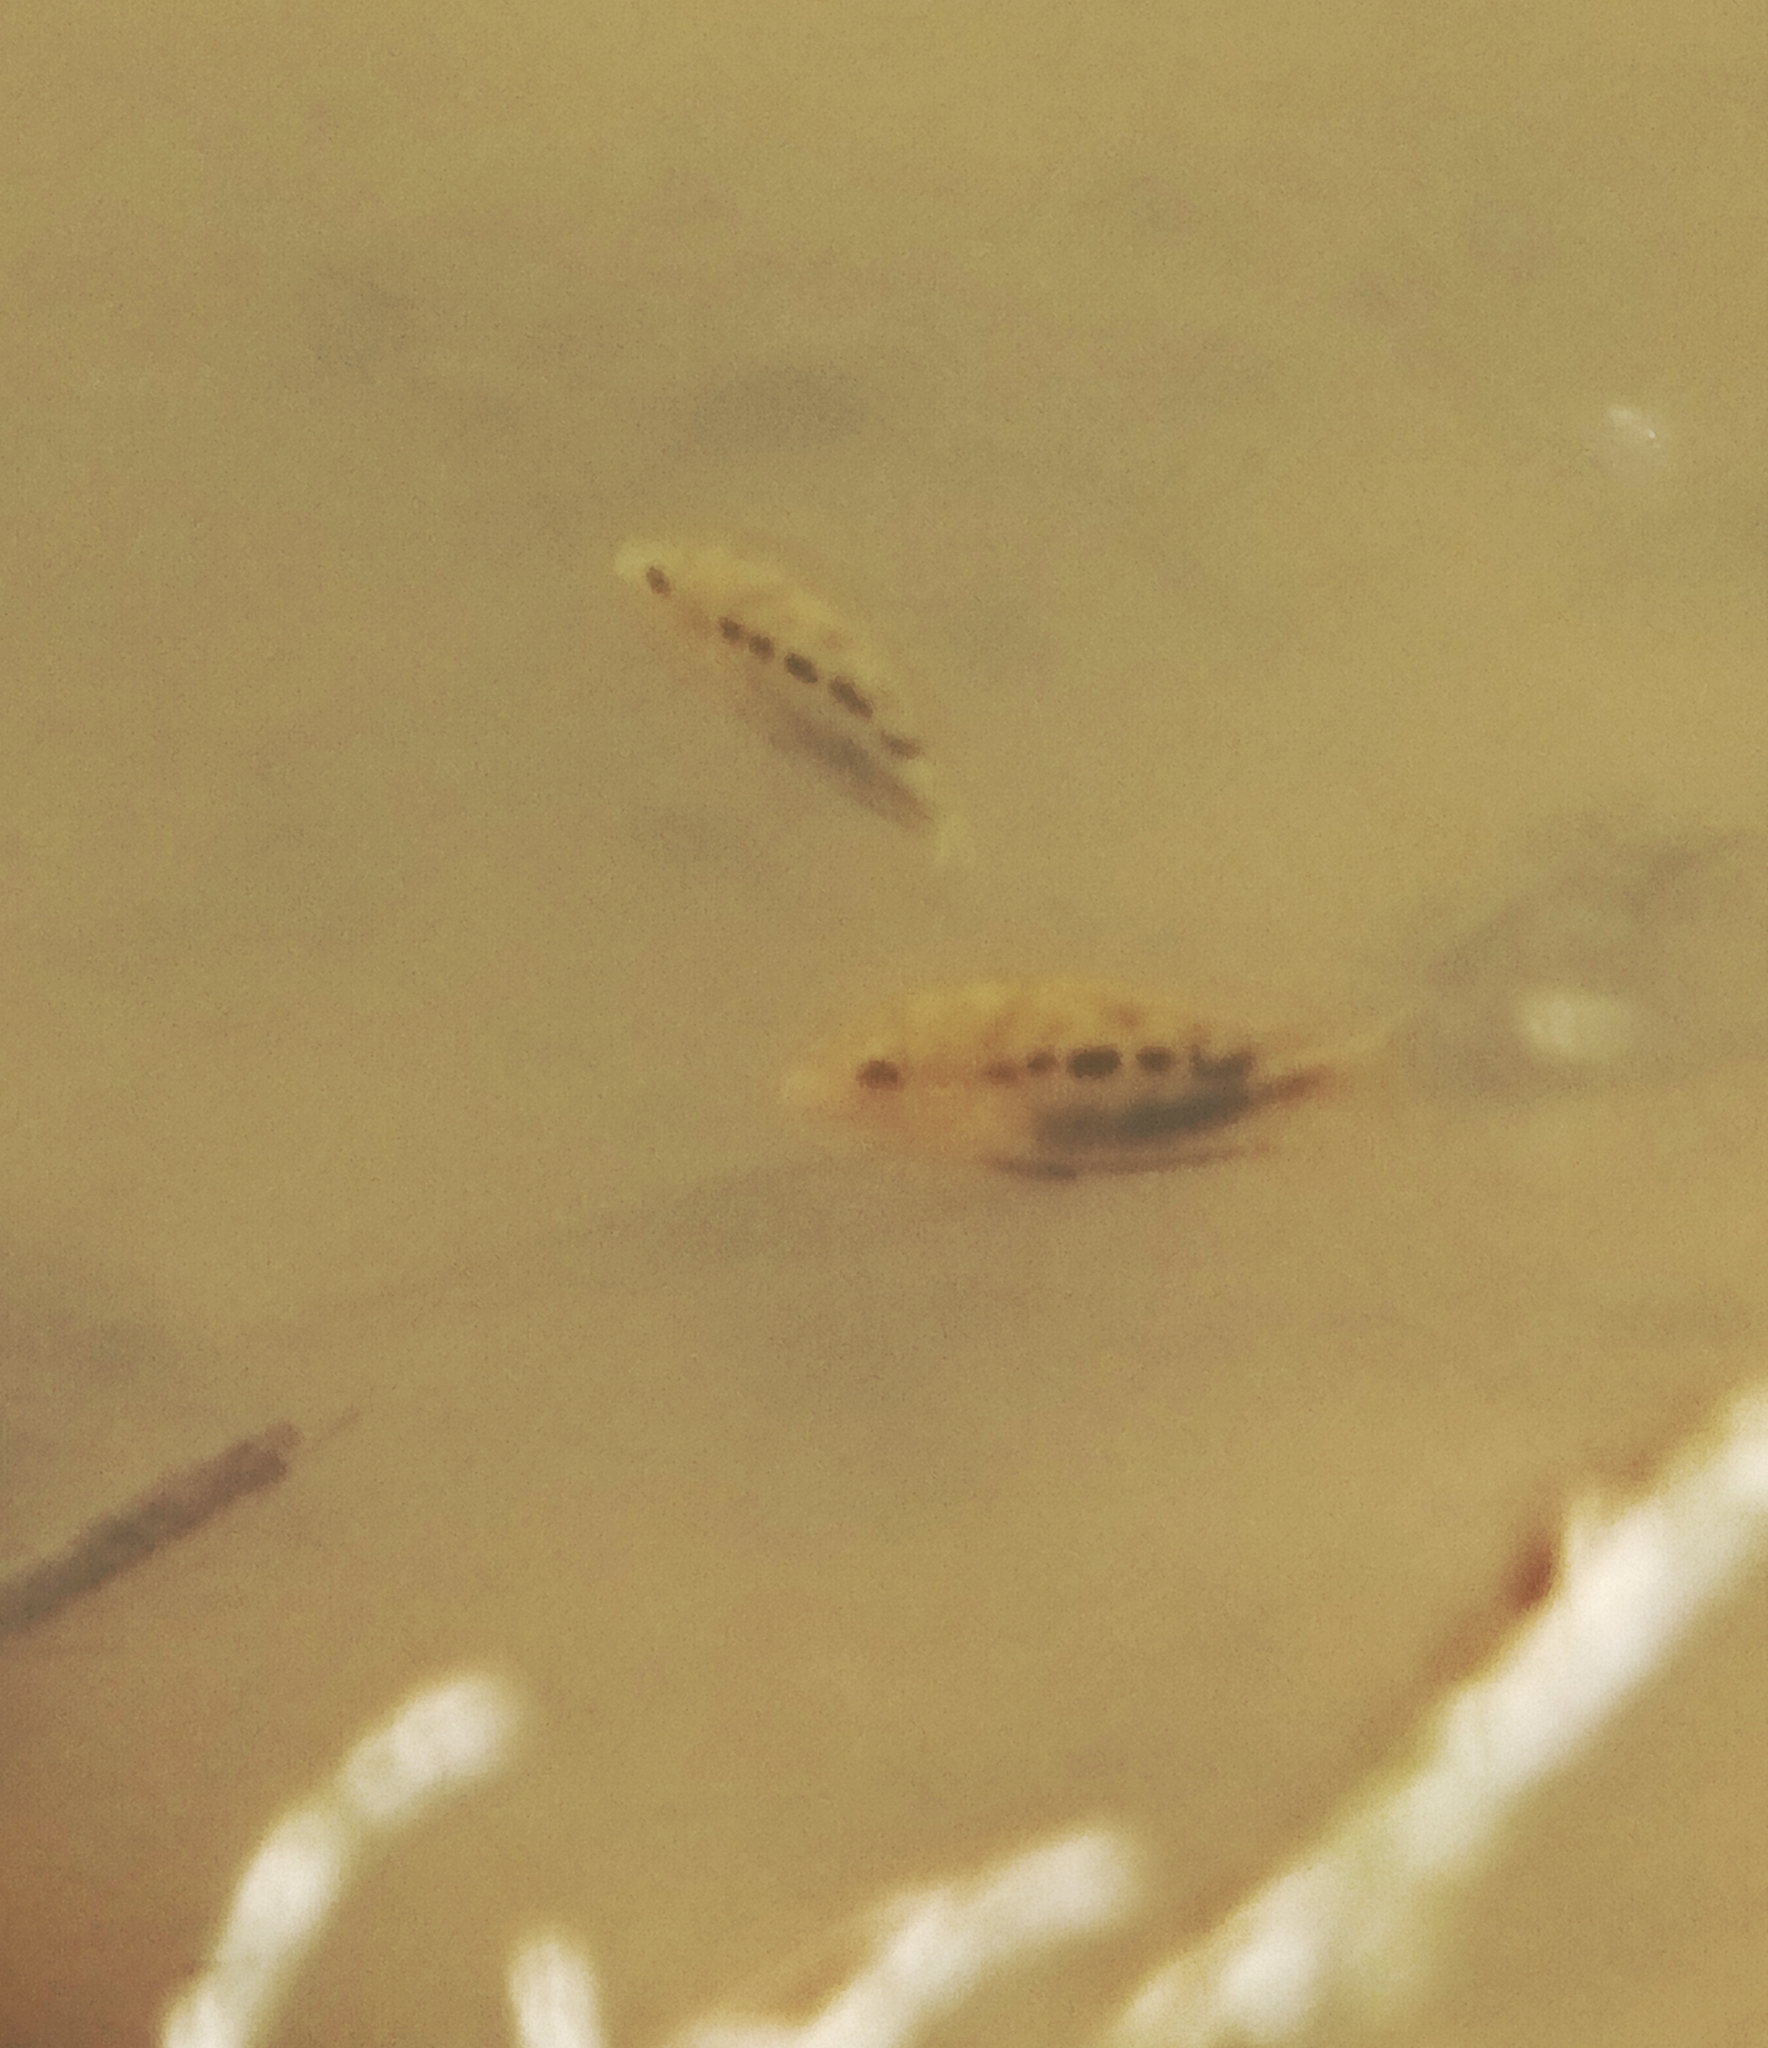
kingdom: Animalia
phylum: Chordata
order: Perciformes
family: Cichlidae
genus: Etroplus
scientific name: Etroplus maculatus
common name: Orange chromide
